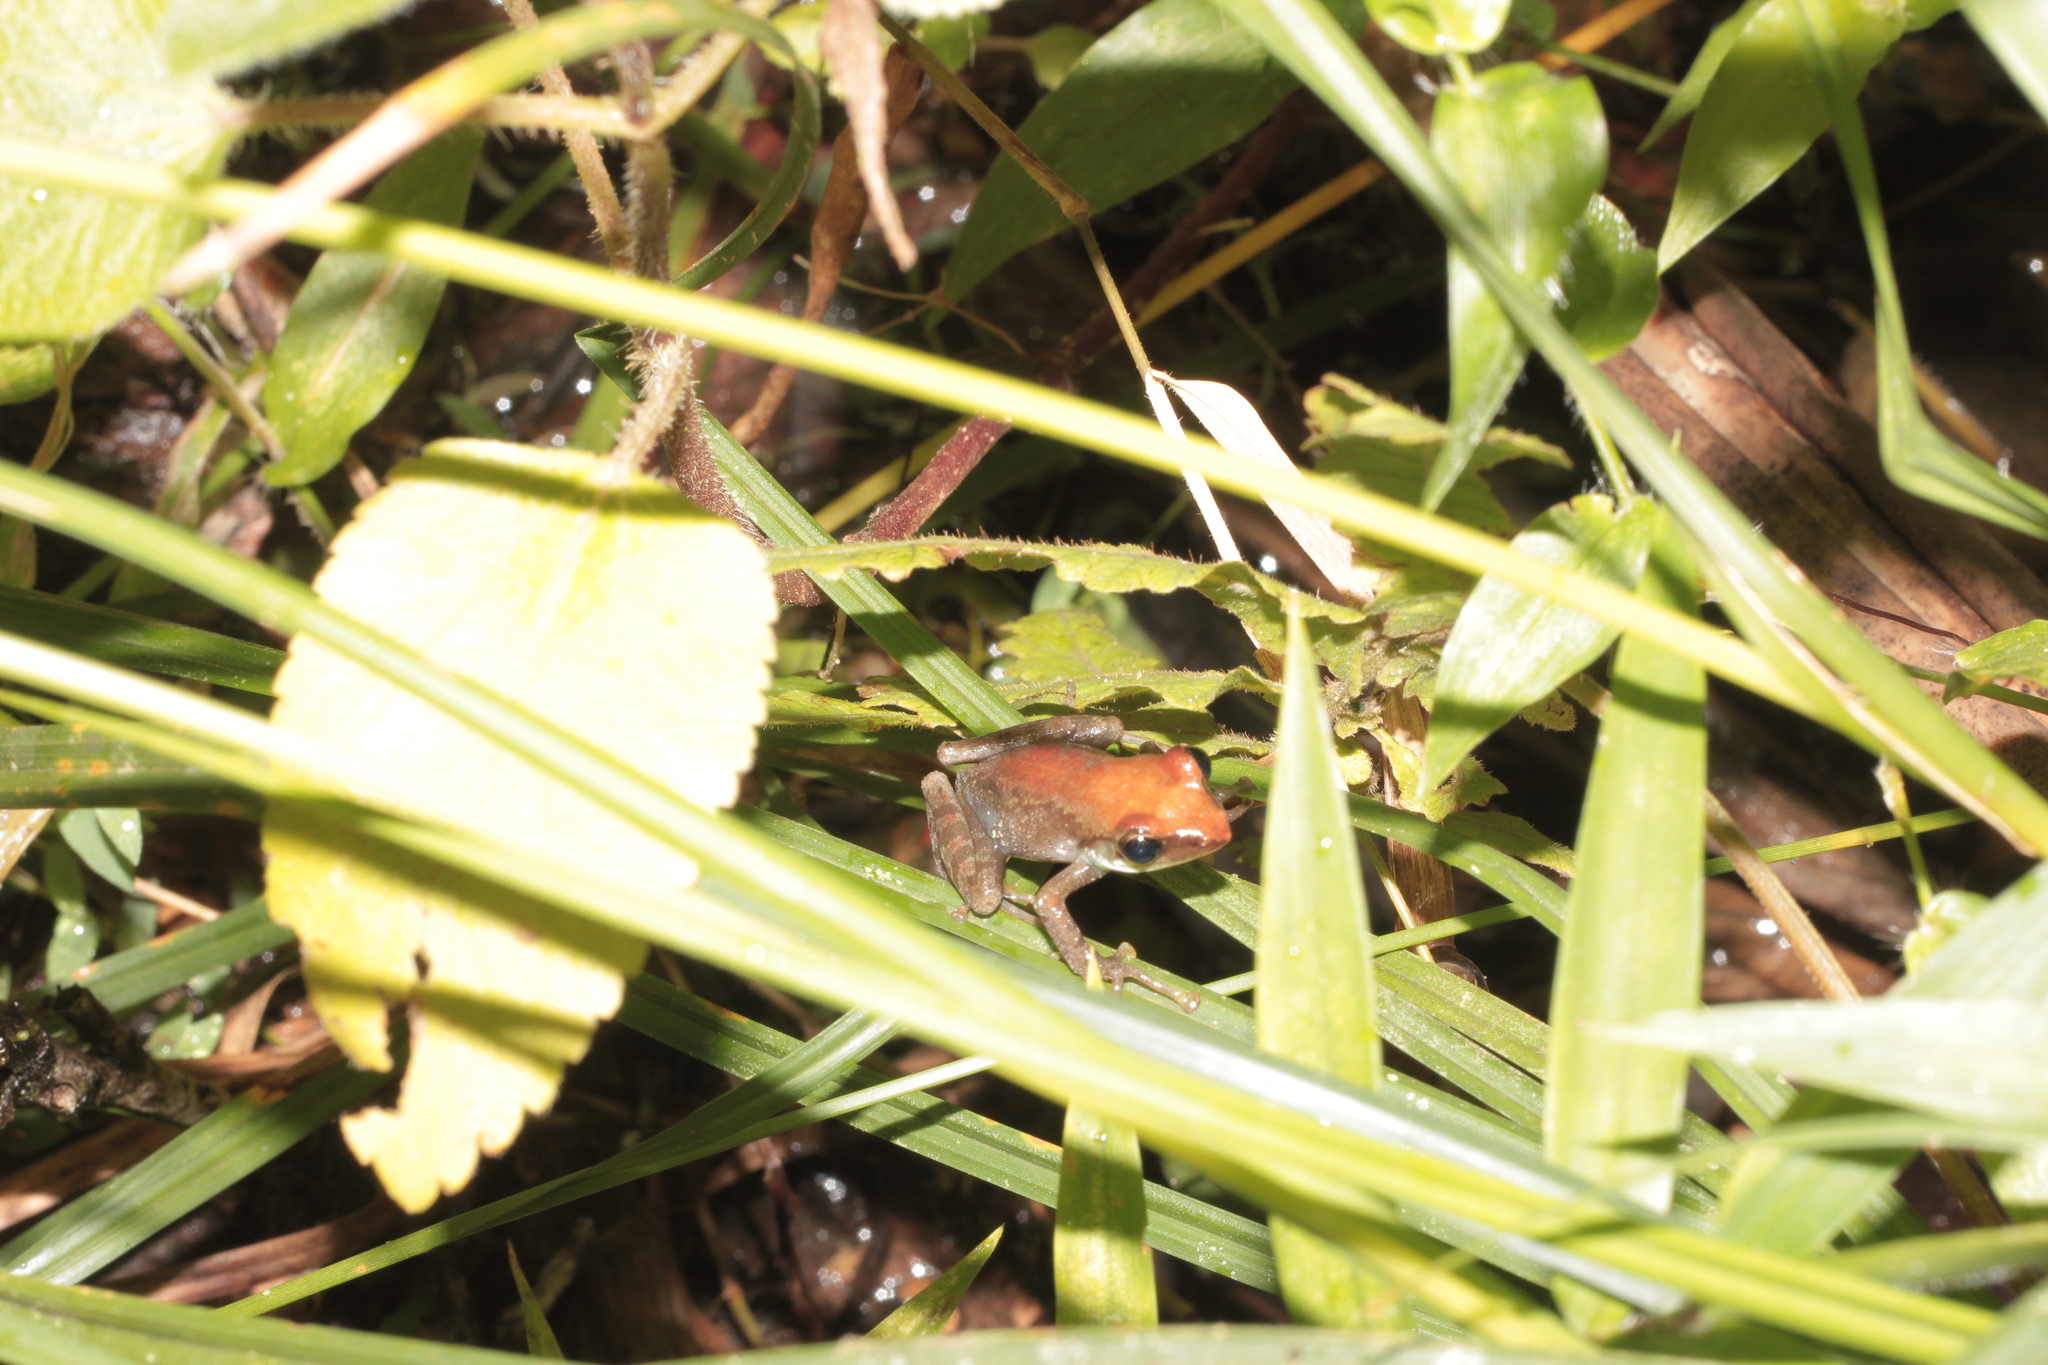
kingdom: Animalia
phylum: Chordata
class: Amphibia
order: Anura
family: Mantellidae
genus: Guibemantis
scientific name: Guibemantis liber
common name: Free madagascar frog
